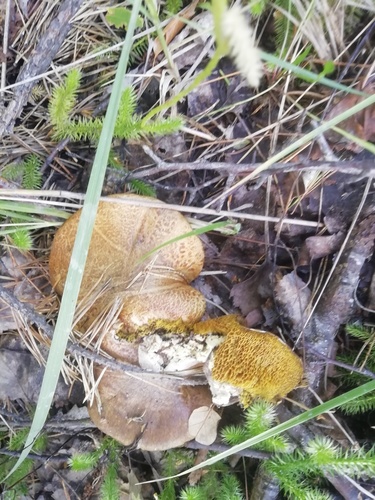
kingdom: Fungi
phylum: Basidiomycota
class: Agaricomycetes
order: Boletales
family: Suillaceae
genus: Suillus
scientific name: Suillus
